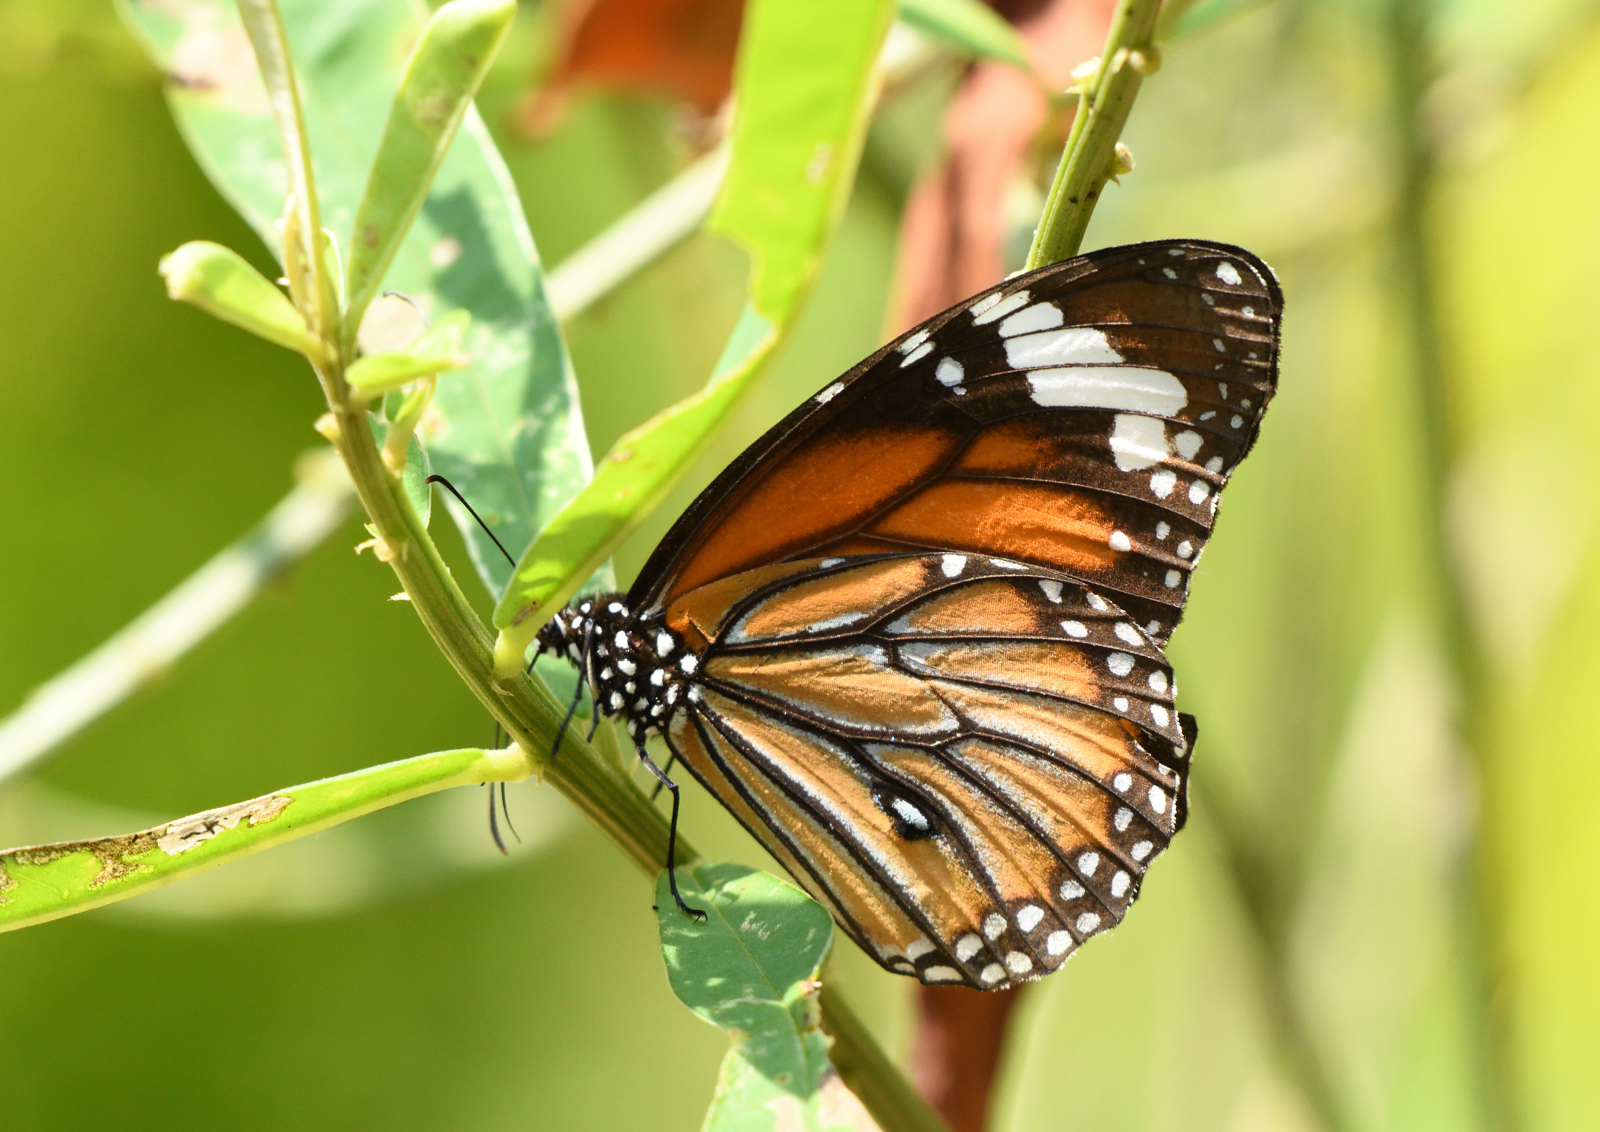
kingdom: Animalia
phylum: Arthropoda
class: Insecta
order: Lepidoptera
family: Nymphalidae
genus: Danaus
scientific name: Danaus genutia
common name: Common tiger butterfly
